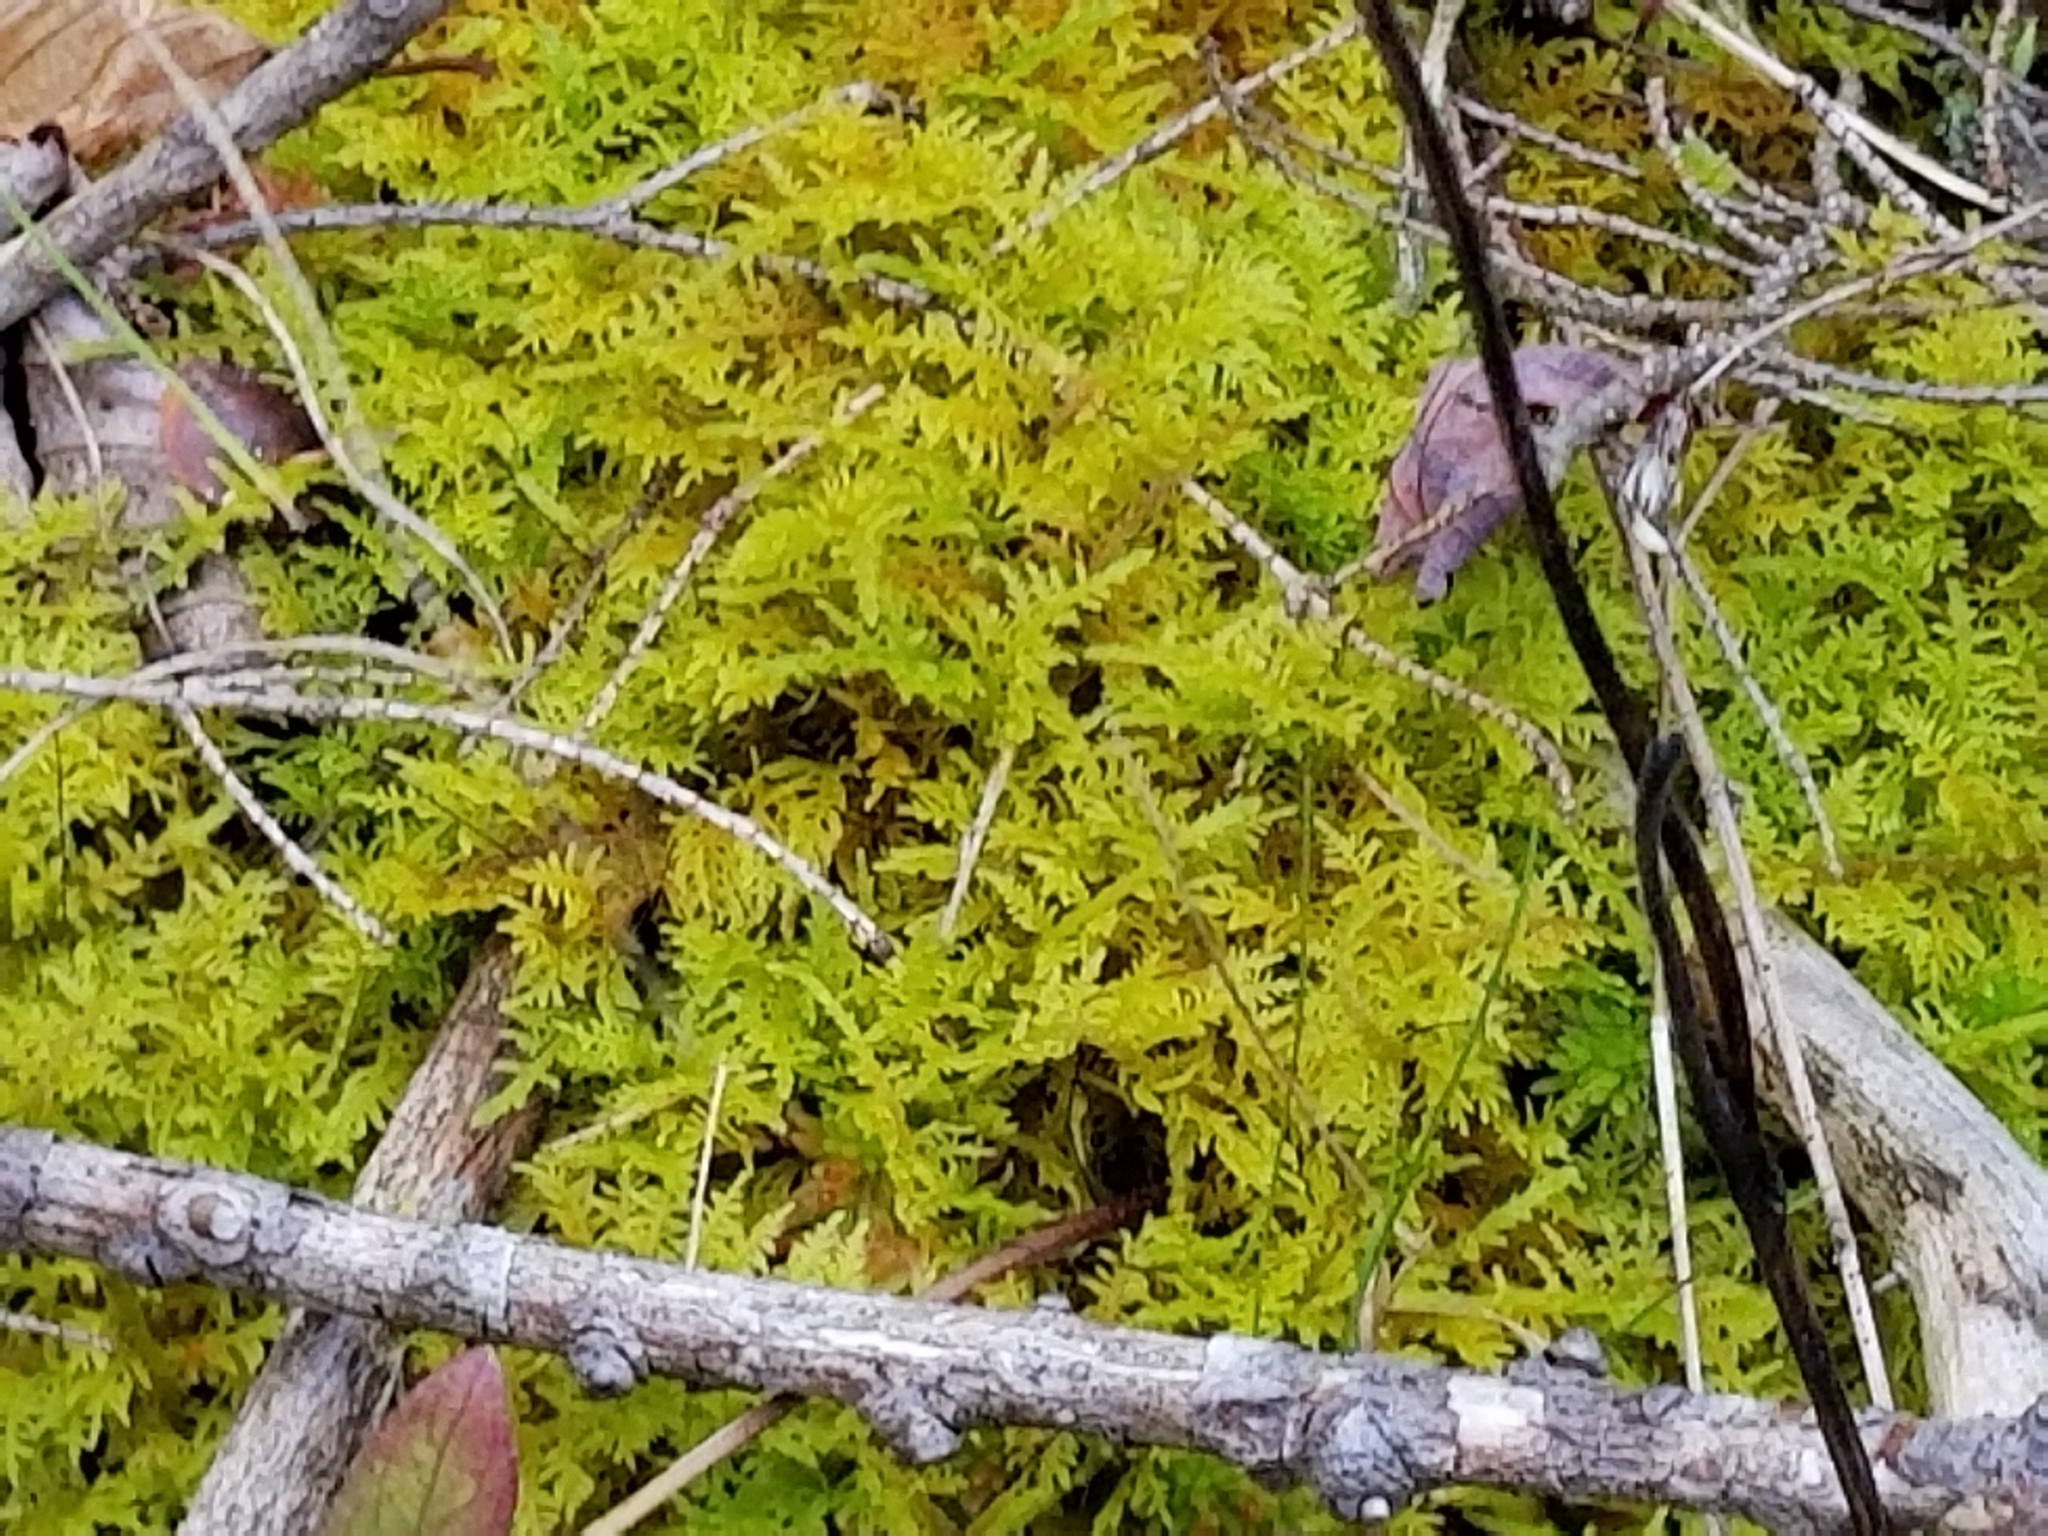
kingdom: Plantae
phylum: Bryophyta
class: Bryopsida
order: Hypnales
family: Thuidiaceae
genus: Thuidium
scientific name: Thuidium delicatulum
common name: Delicate fern moss
